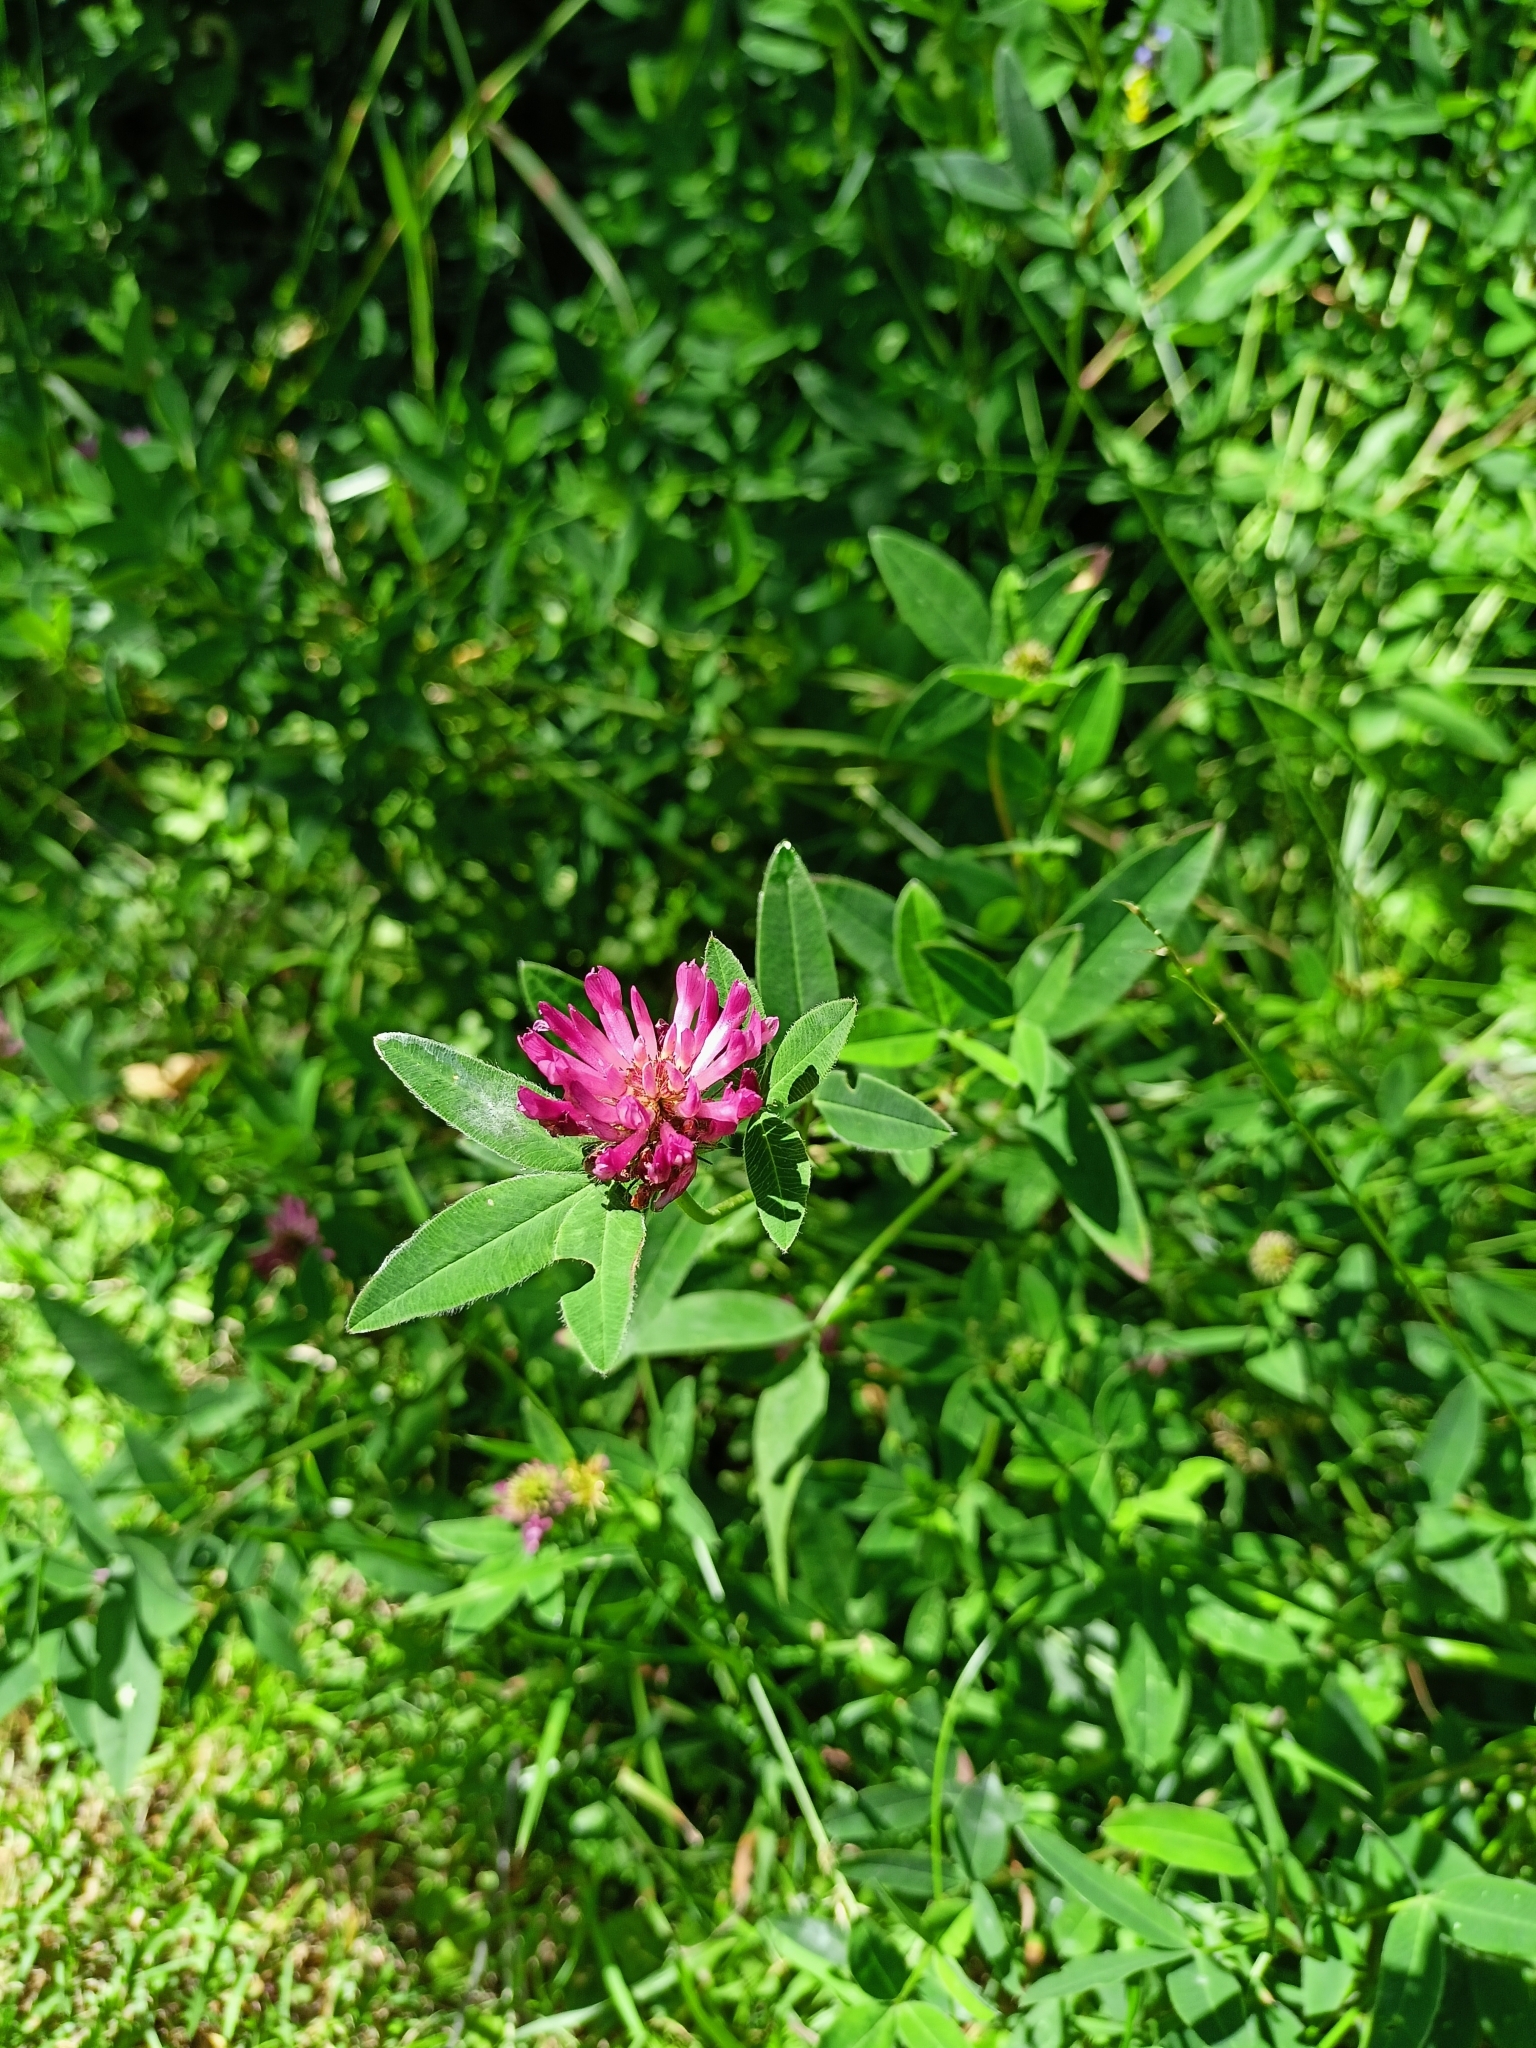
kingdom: Plantae
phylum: Tracheophyta
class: Magnoliopsida
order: Fabales
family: Fabaceae
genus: Trifolium
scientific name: Trifolium medium
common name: Zigzag clover
